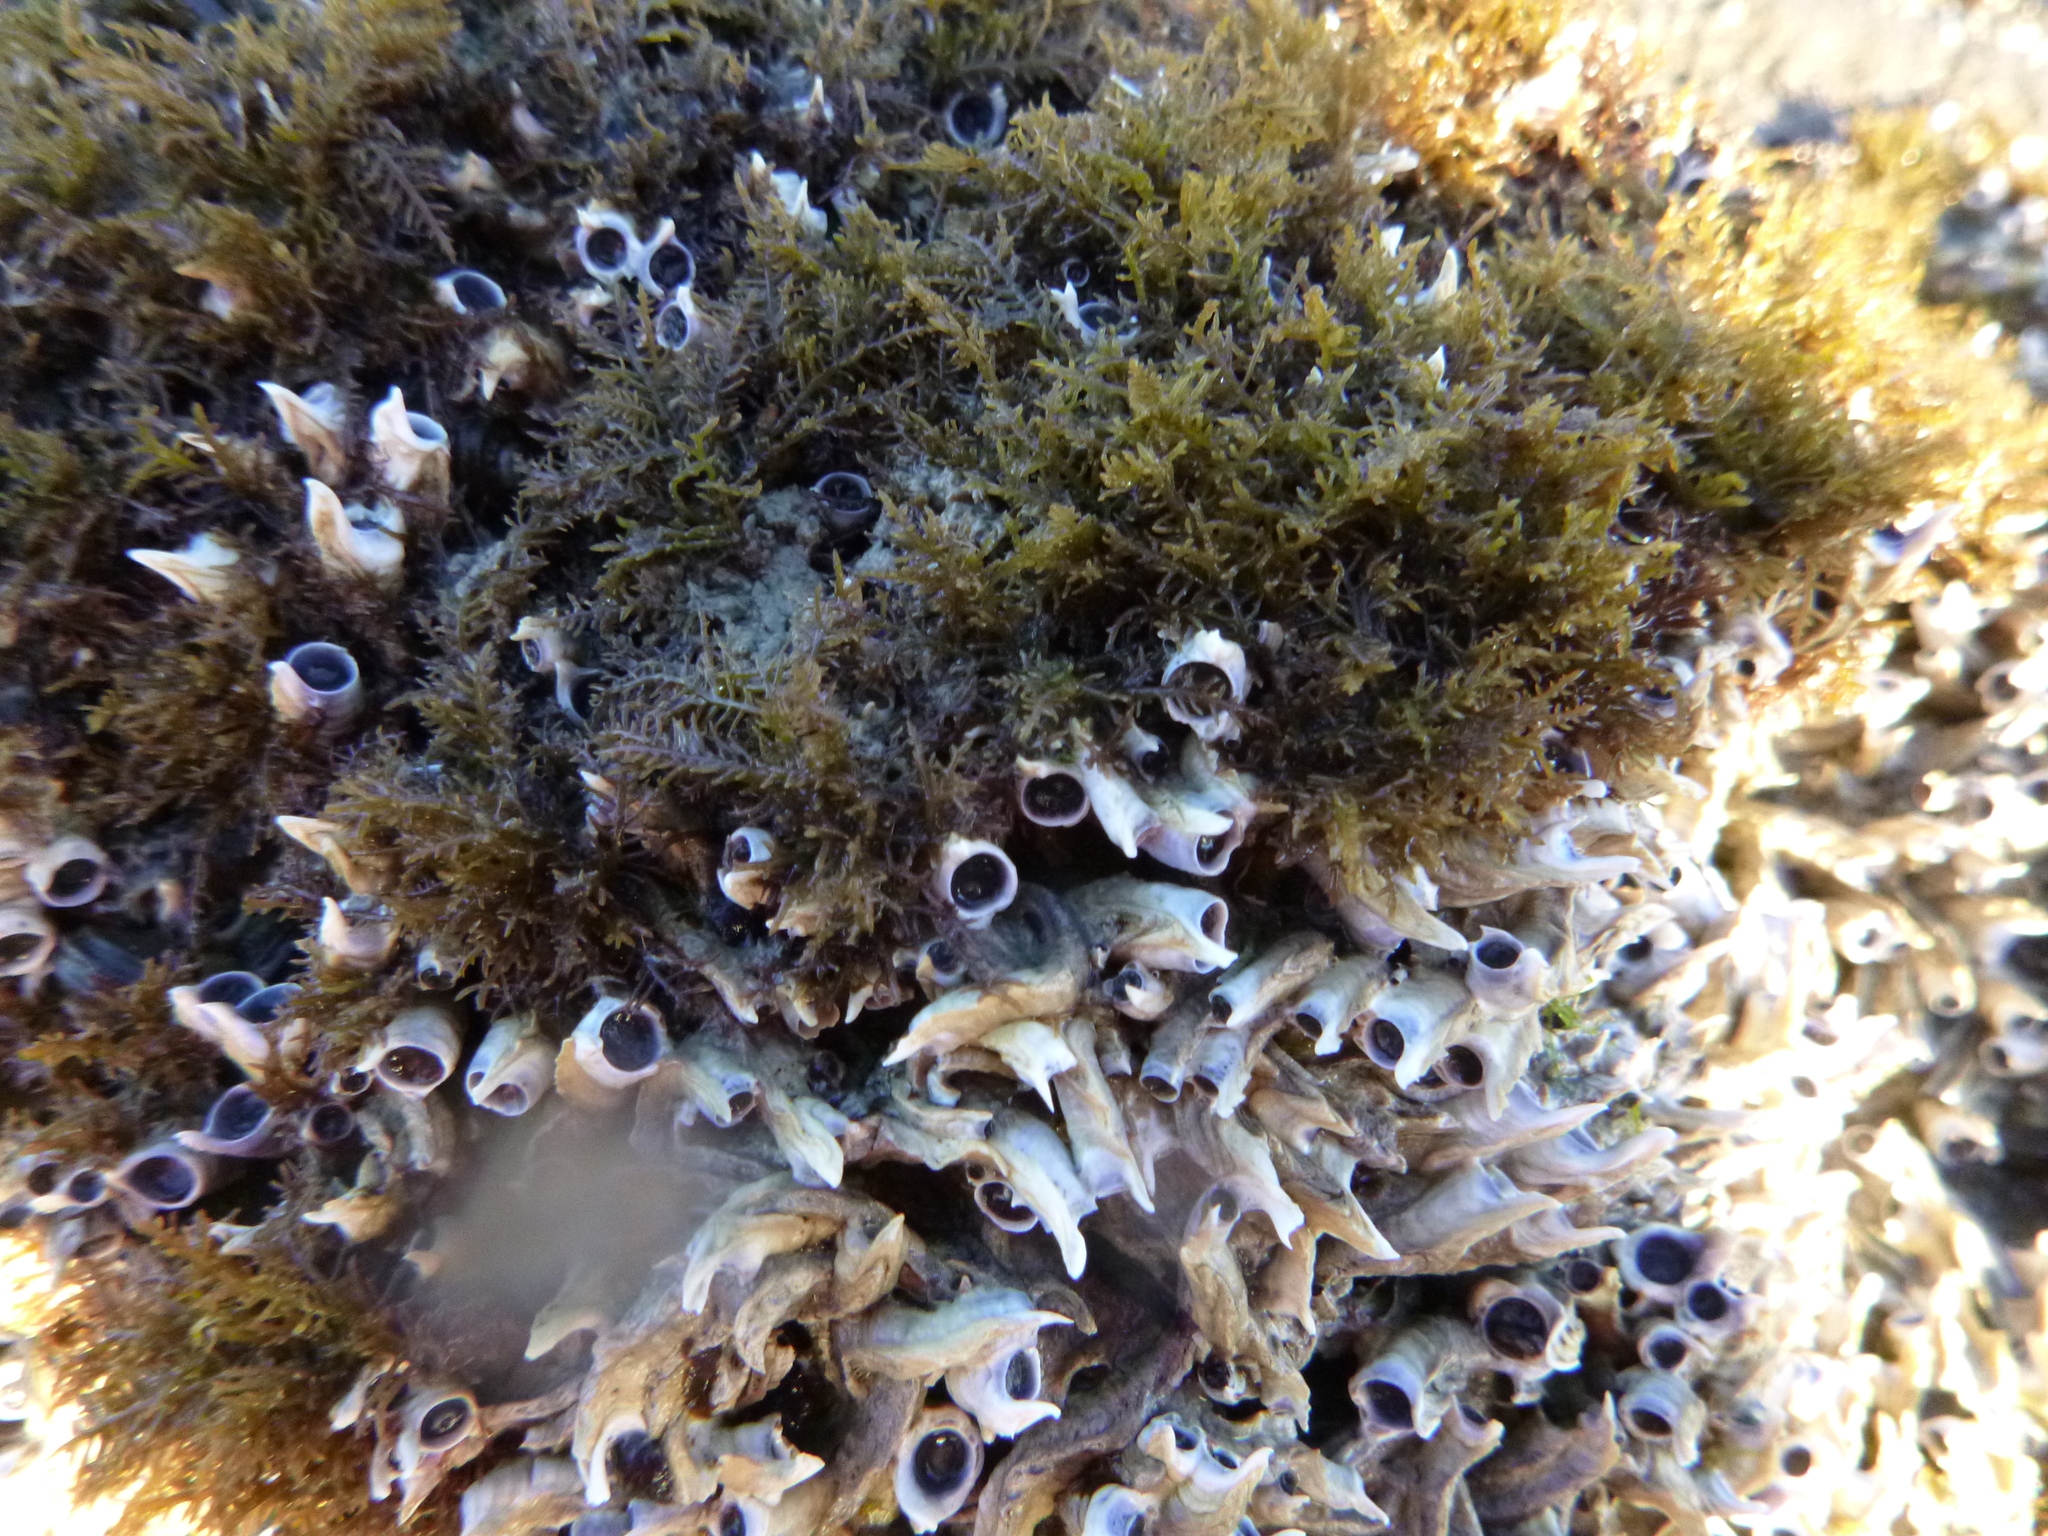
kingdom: Animalia
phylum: Annelida
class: Polychaeta
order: Sabellida
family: Serpulidae
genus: Spirobranchus
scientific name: Spirobranchus cariniferus
